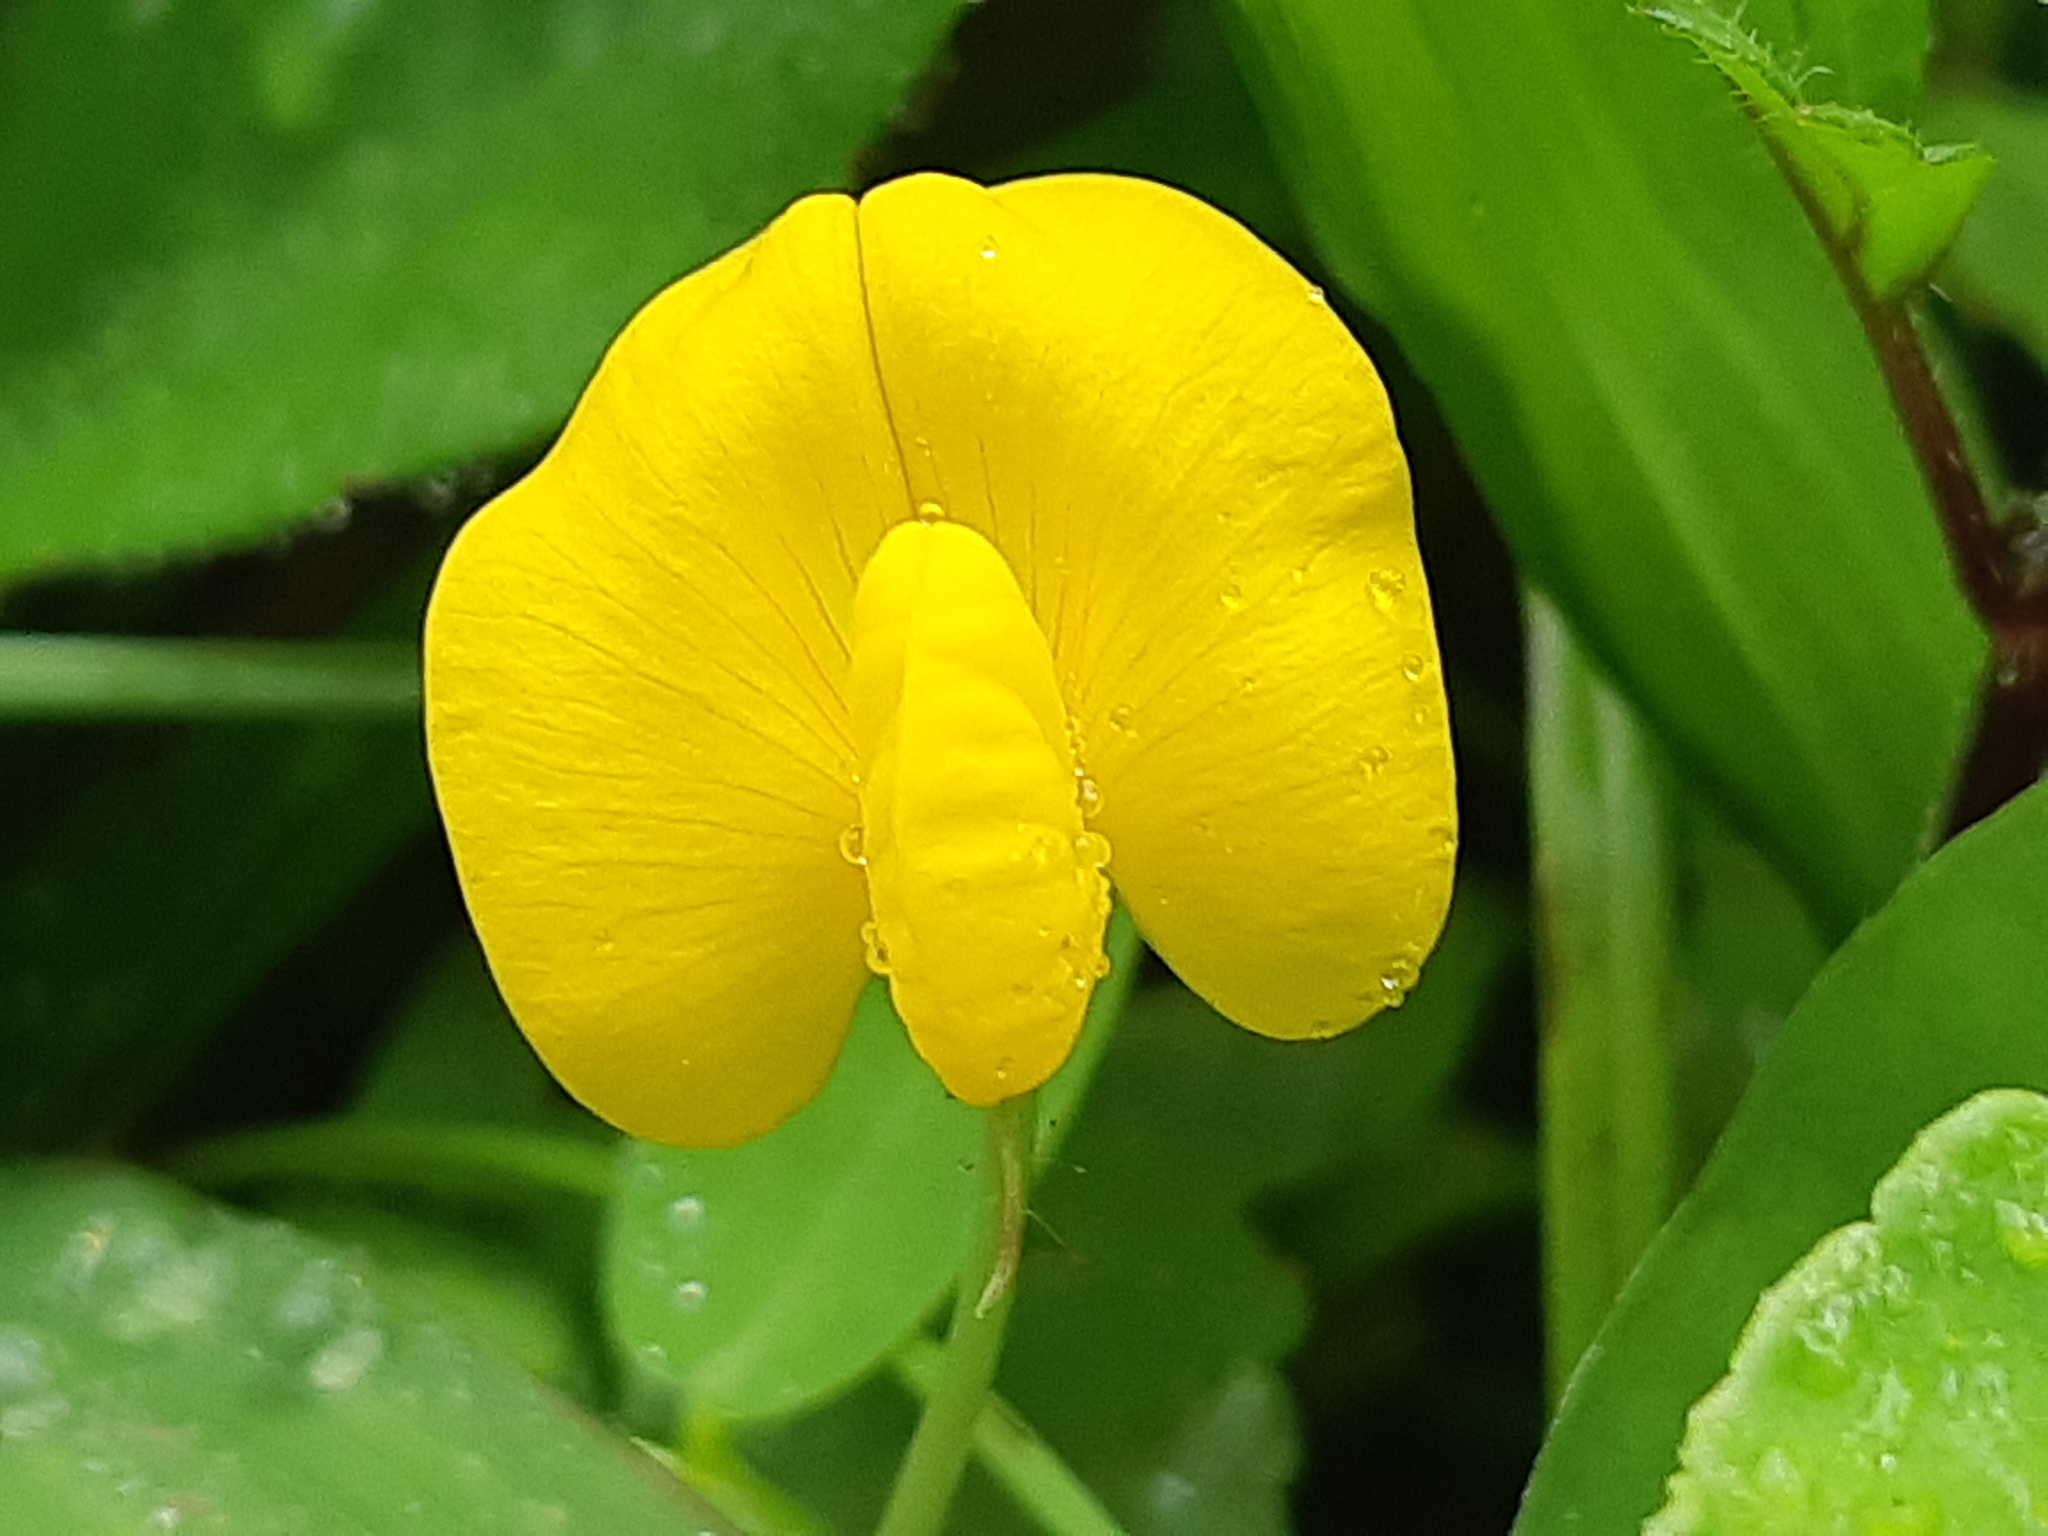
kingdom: Plantae
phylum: Tracheophyta
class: Magnoliopsida
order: Fabales
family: Fabaceae
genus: Arachis
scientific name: Arachis pintoi
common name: Pinto peanut
